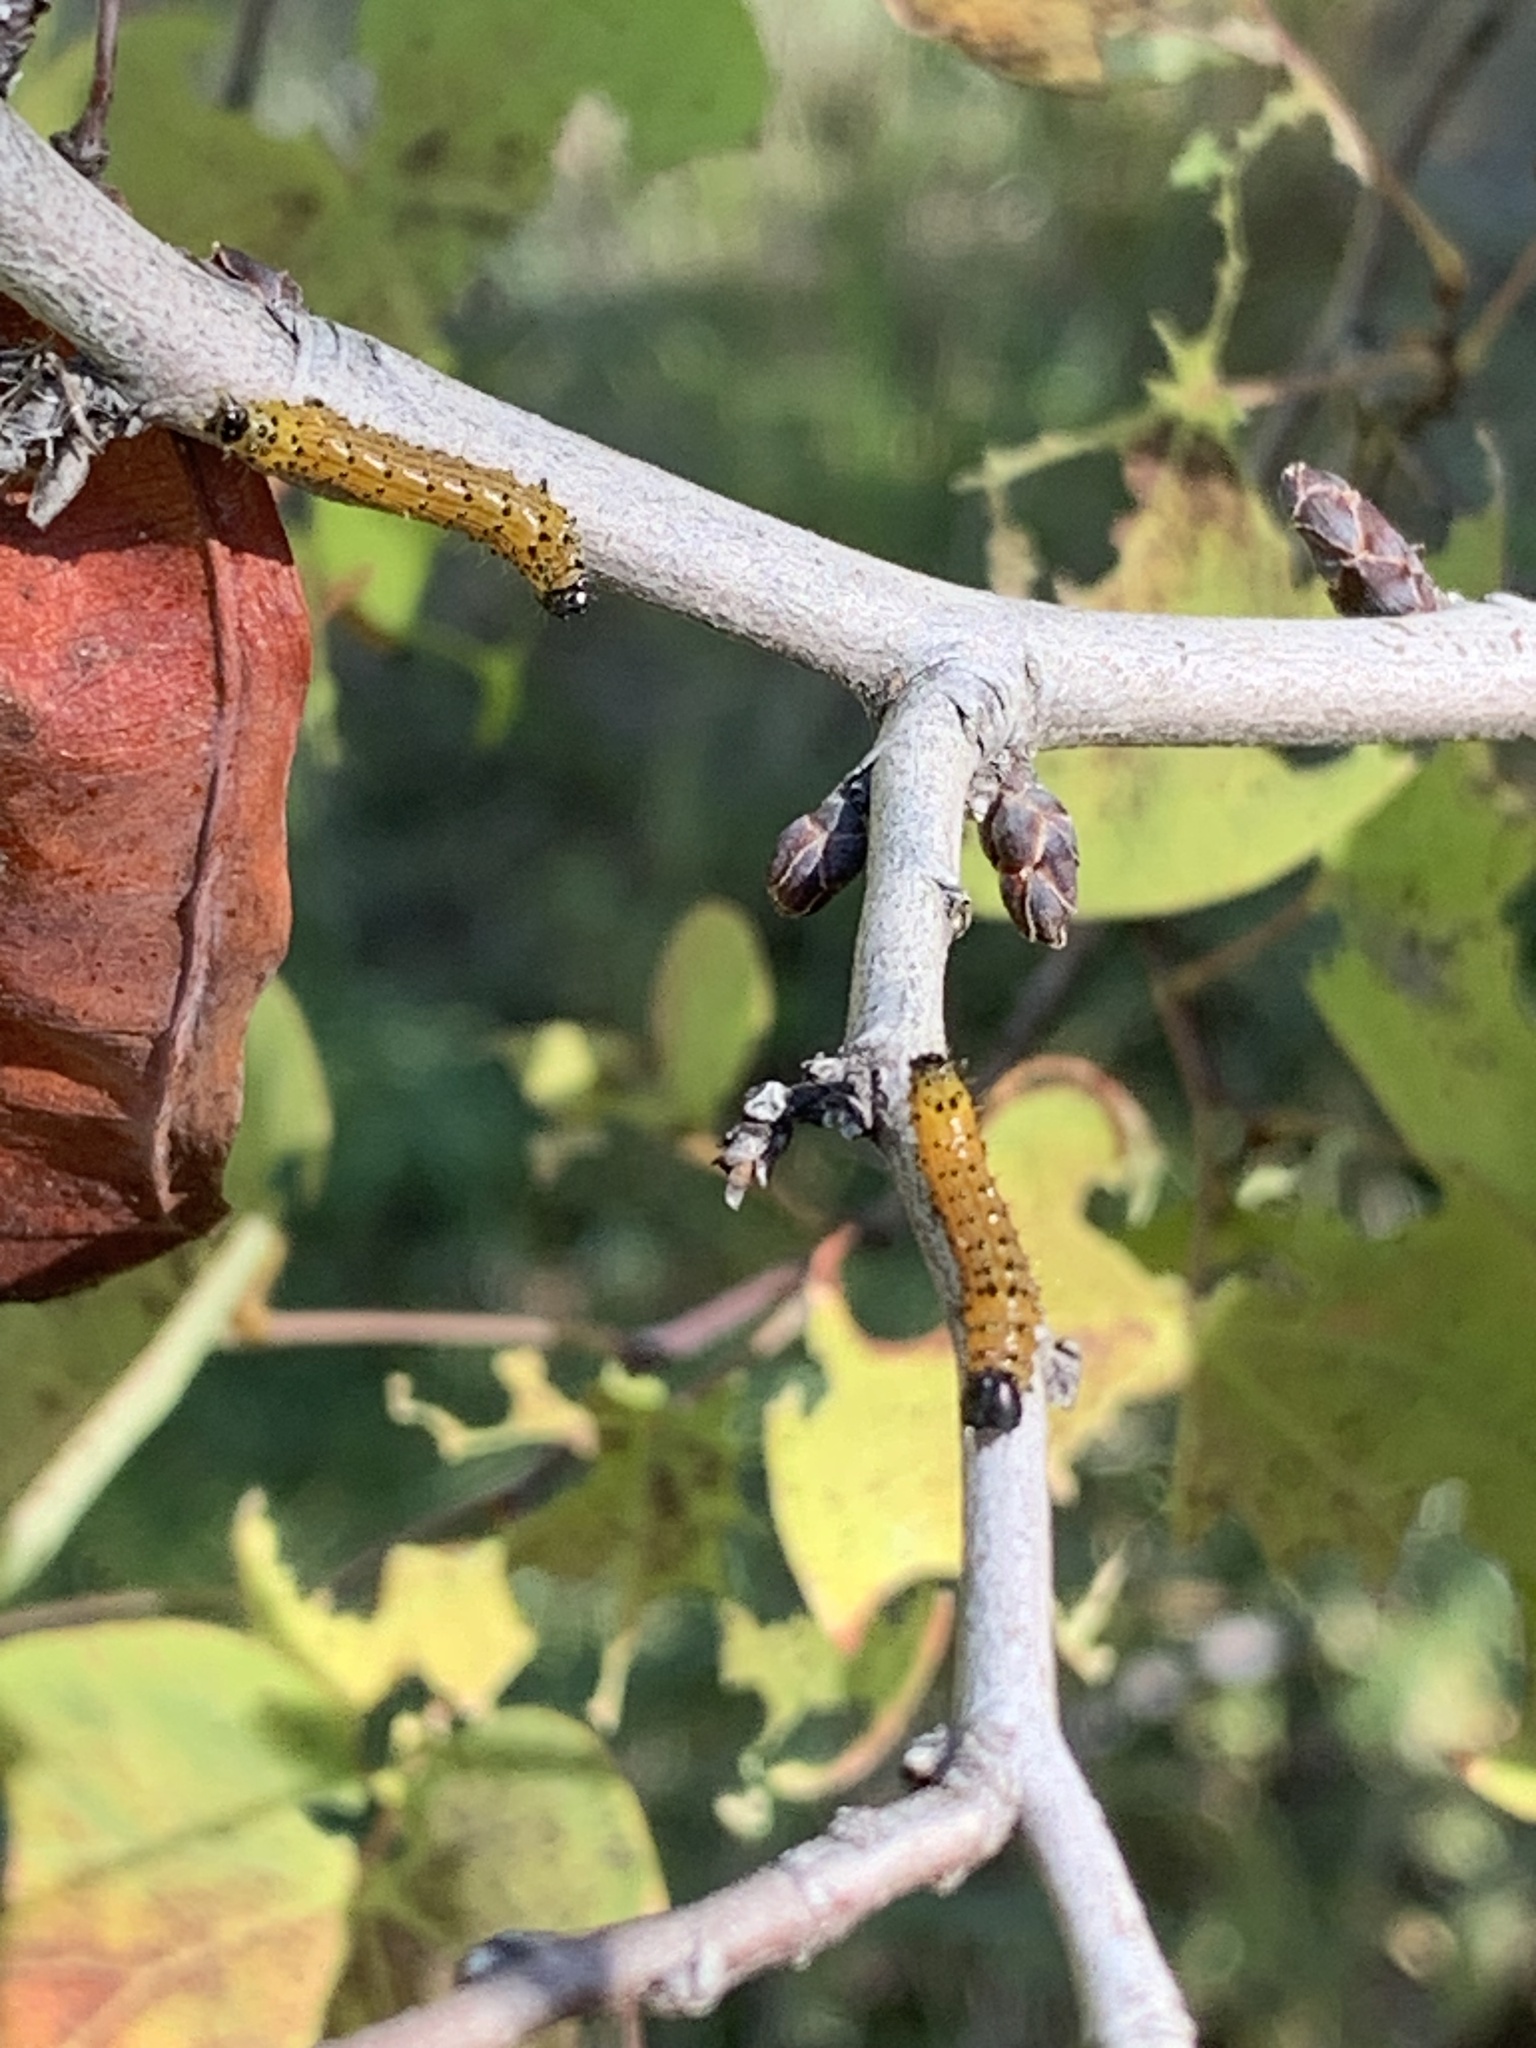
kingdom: Animalia
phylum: Arthropoda
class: Insecta
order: Lepidoptera
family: Notodontidae
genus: Schizura
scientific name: Schizura
